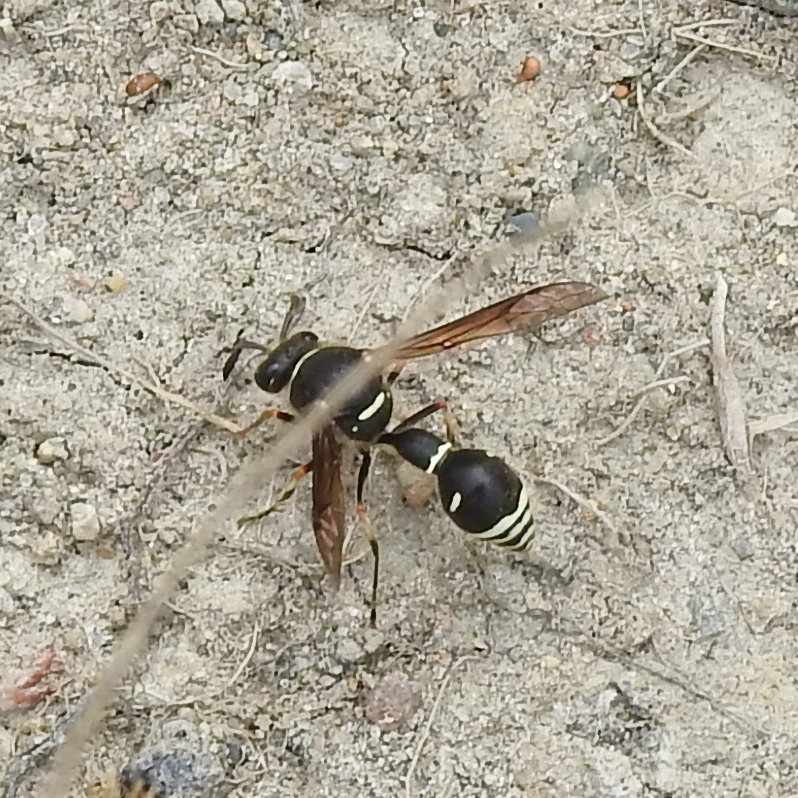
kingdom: Animalia
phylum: Arthropoda
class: Insecta
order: Hymenoptera
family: Vespidae
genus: Eumenes
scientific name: Eumenes crucifera
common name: Cross potter wasp
